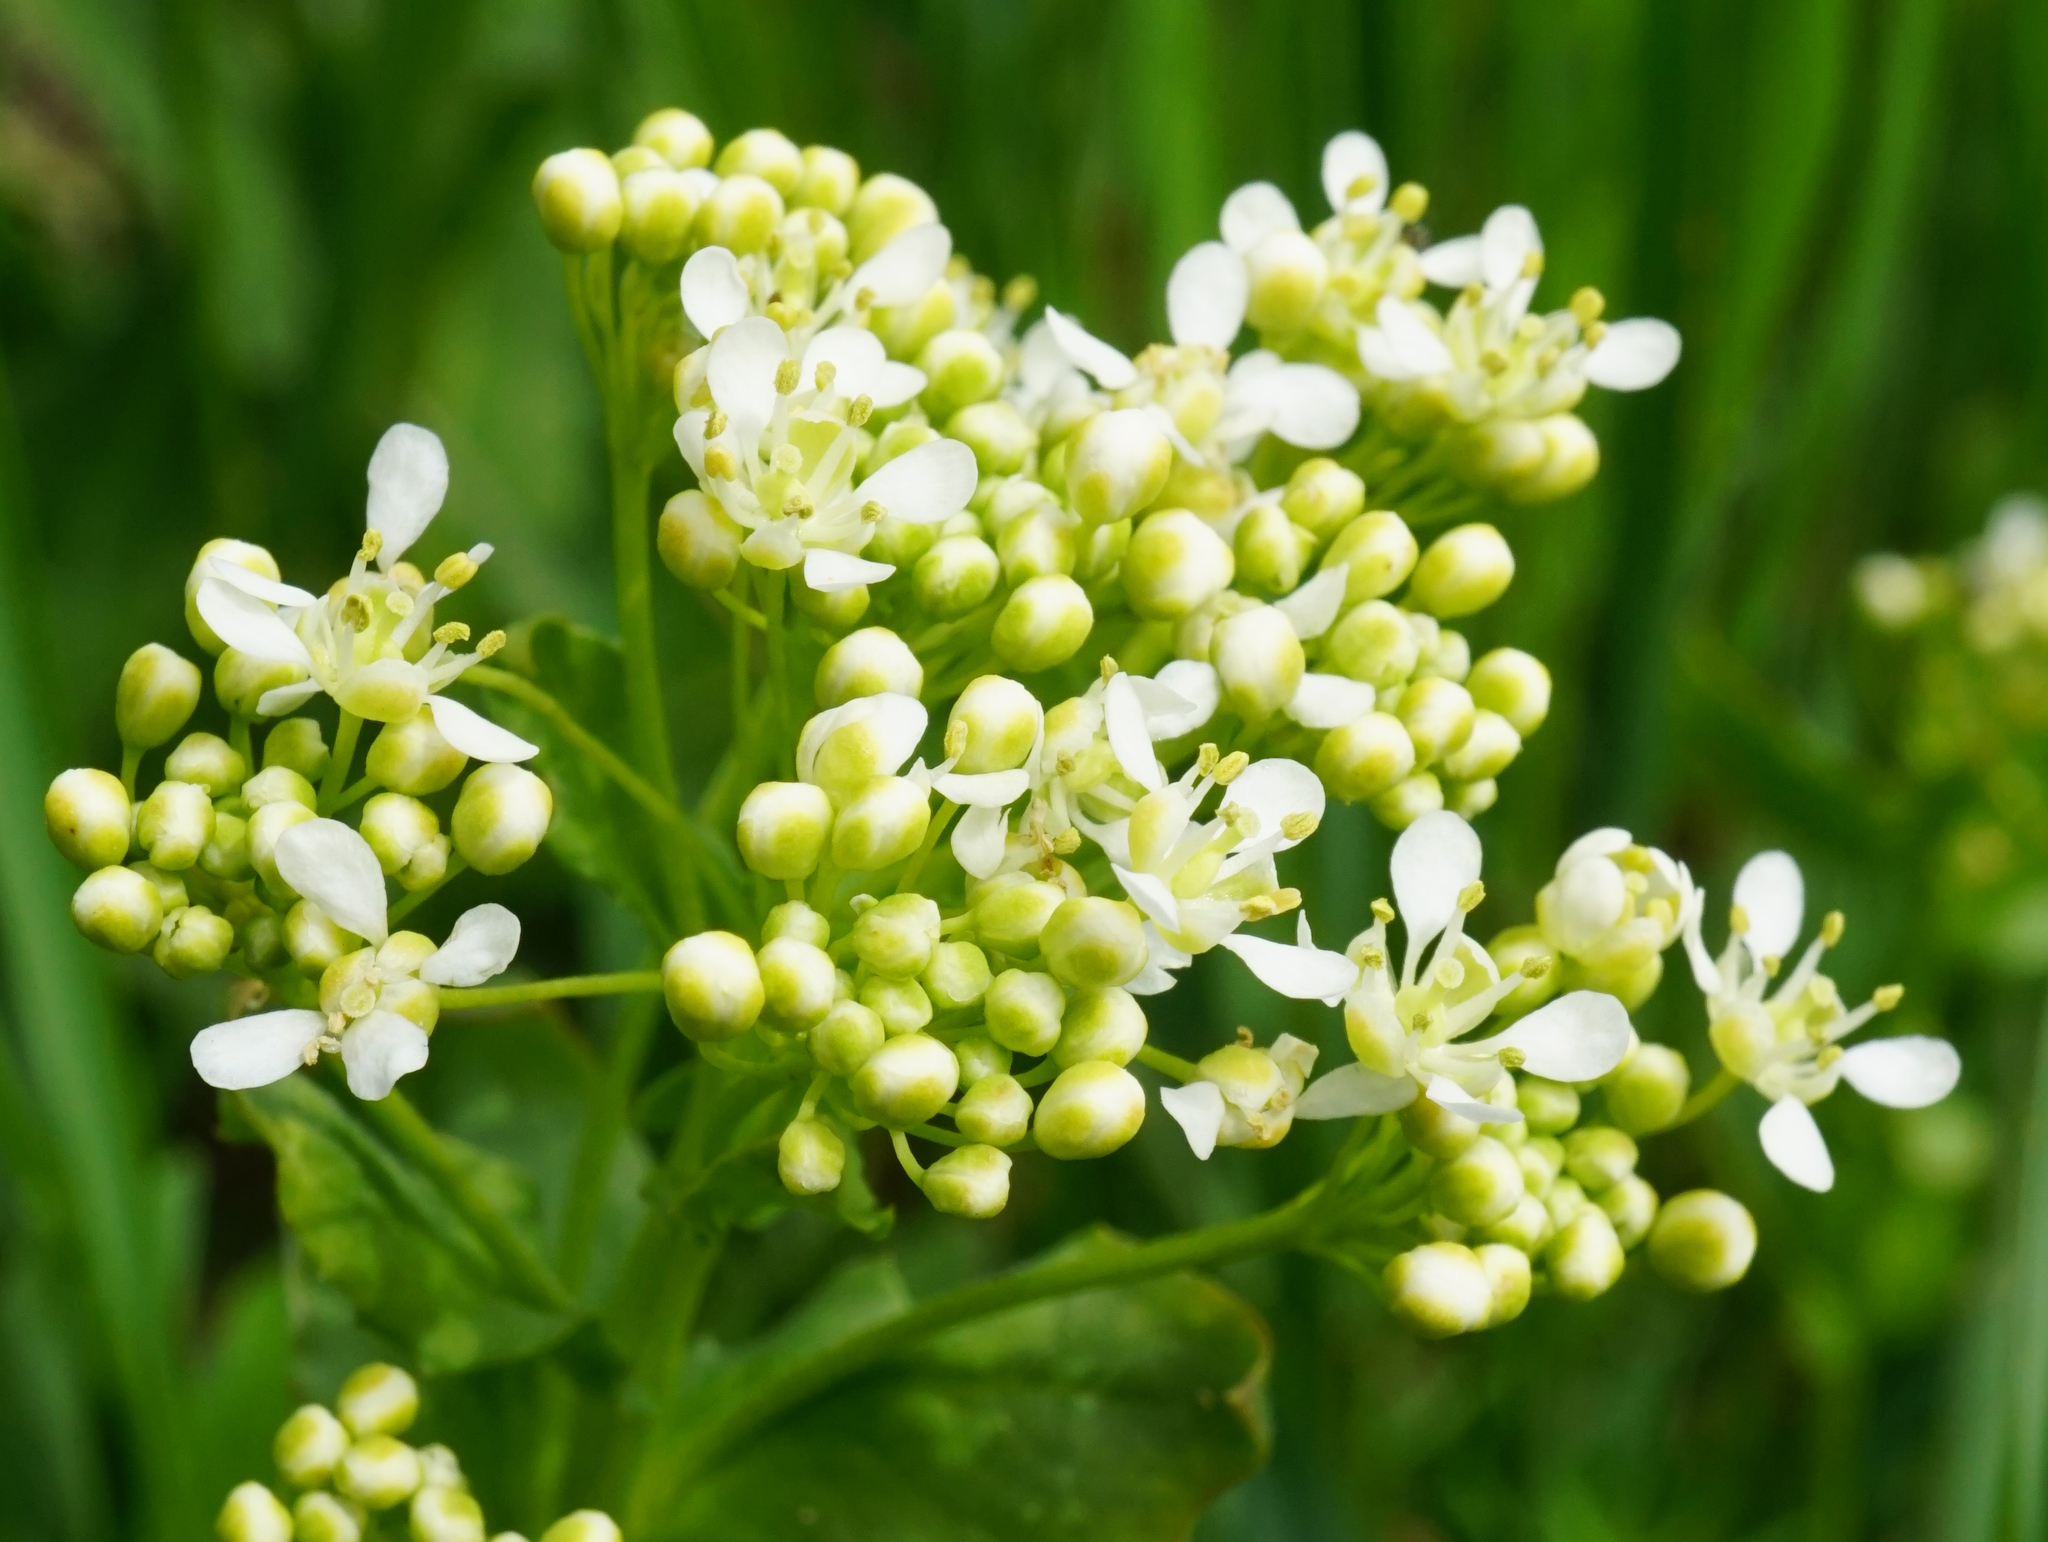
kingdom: Plantae
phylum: Tracheophyta
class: Magnoliopsida
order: Brassicales
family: Brassicaceae
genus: Lepidium
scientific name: Lepidium draba
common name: Hoary cress
